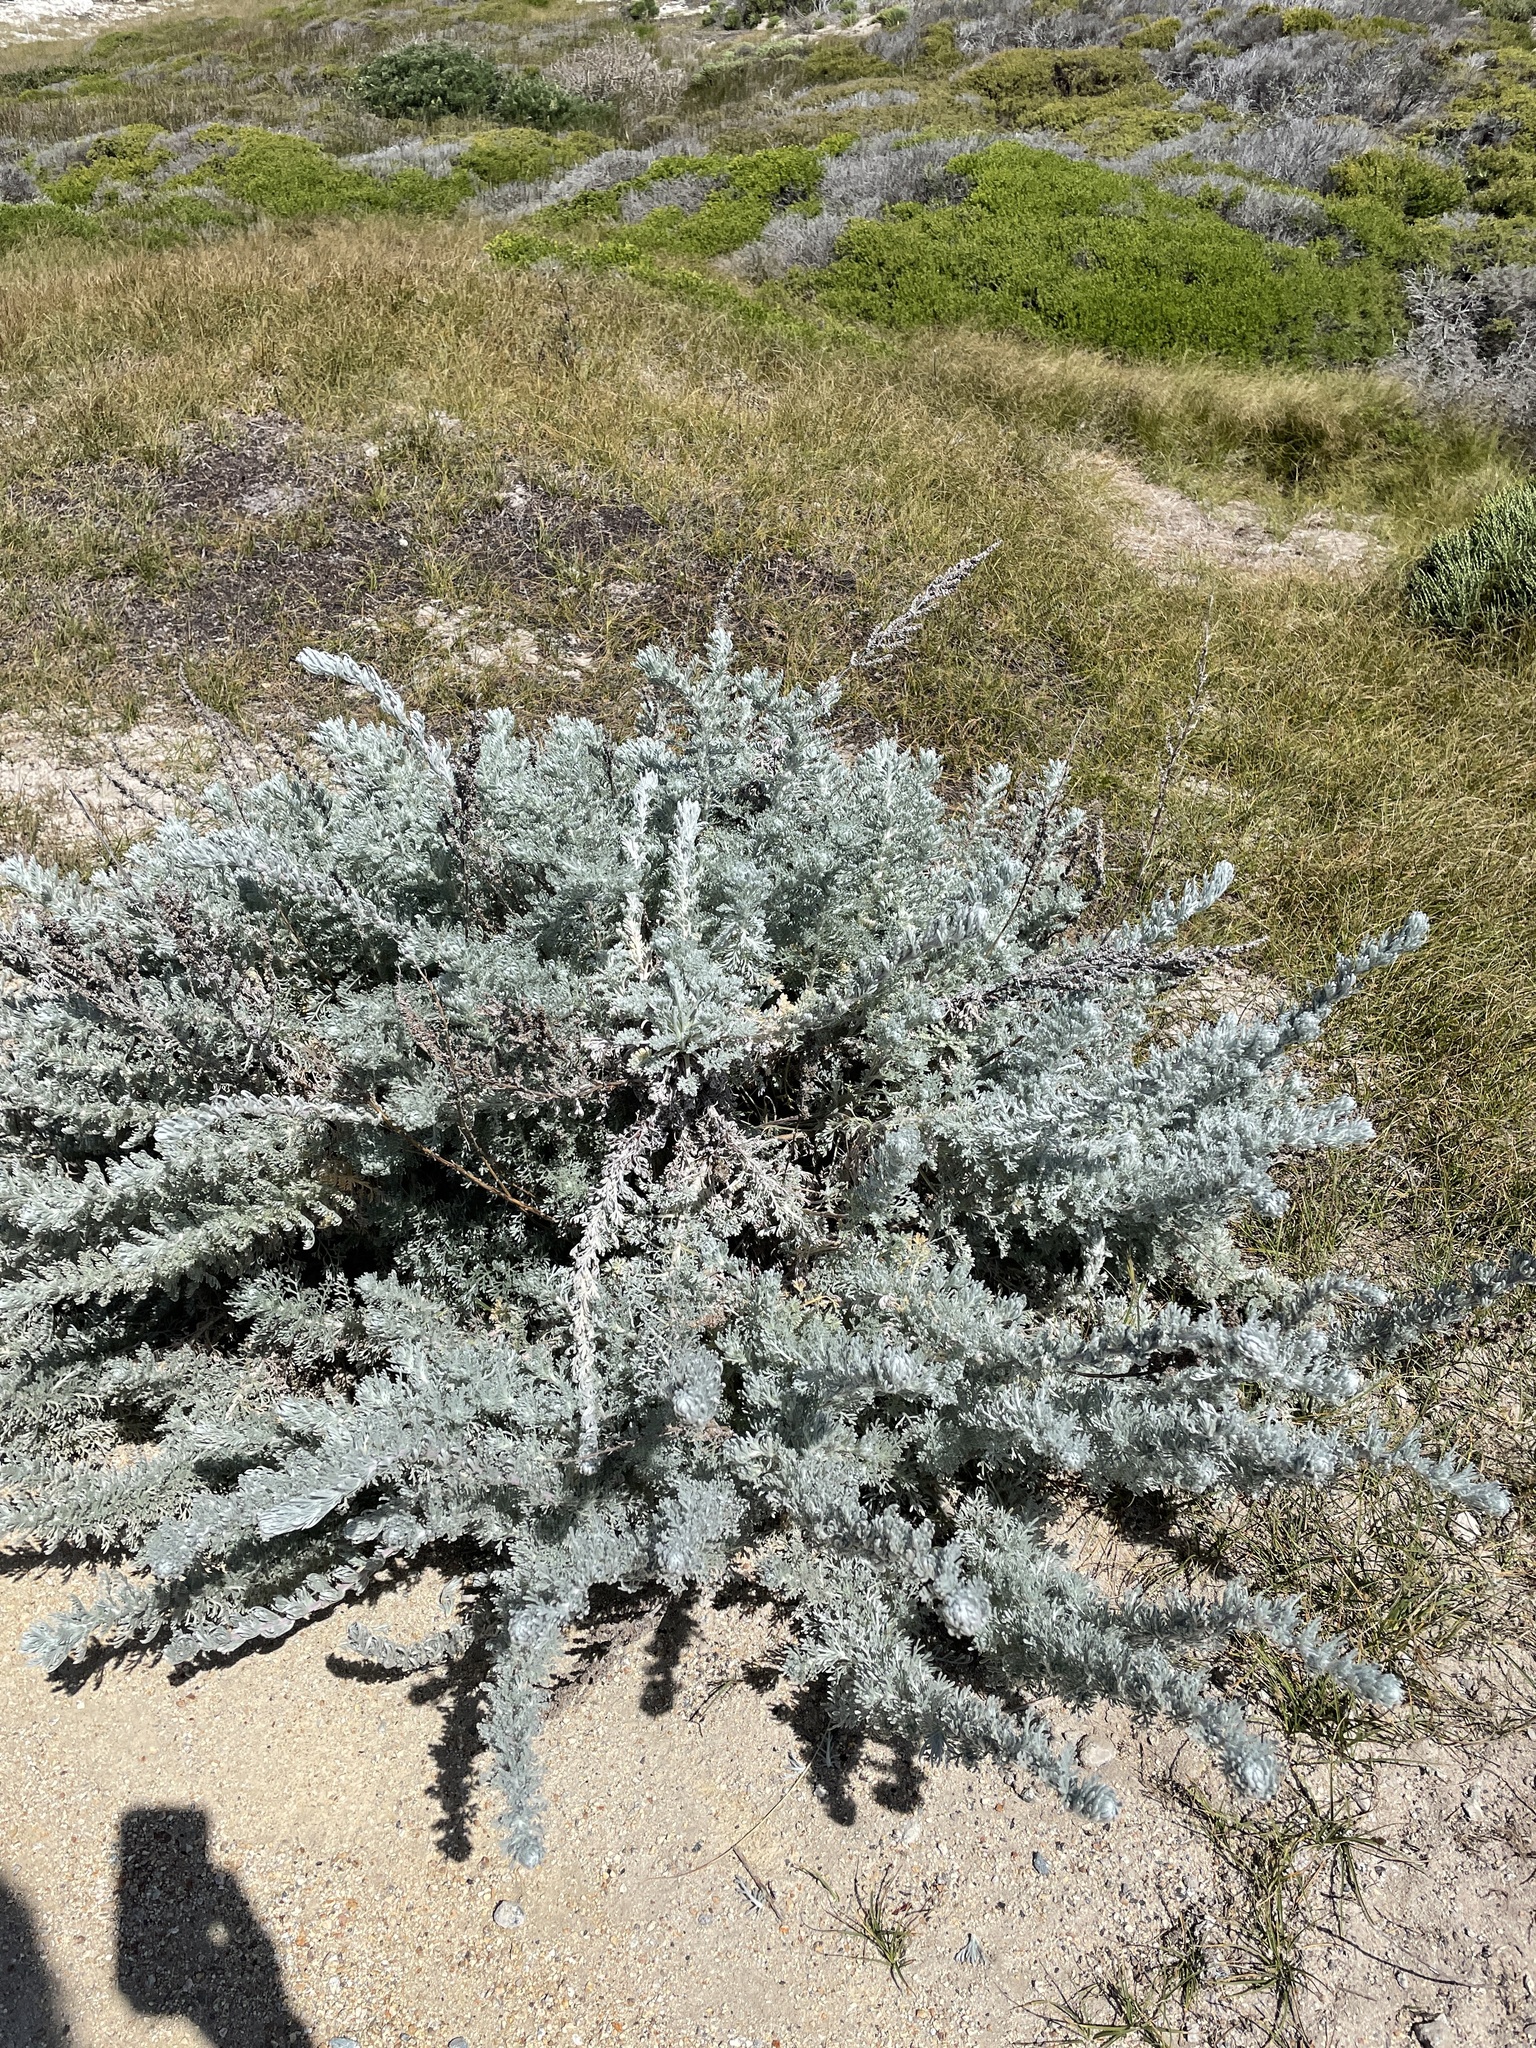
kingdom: Plantae
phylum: Tracheophyta
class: Magnoliopsida
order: Asterales
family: Asteraceae
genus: Artemisia
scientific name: Artemisia pycnocephala
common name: Coastal sagewort
